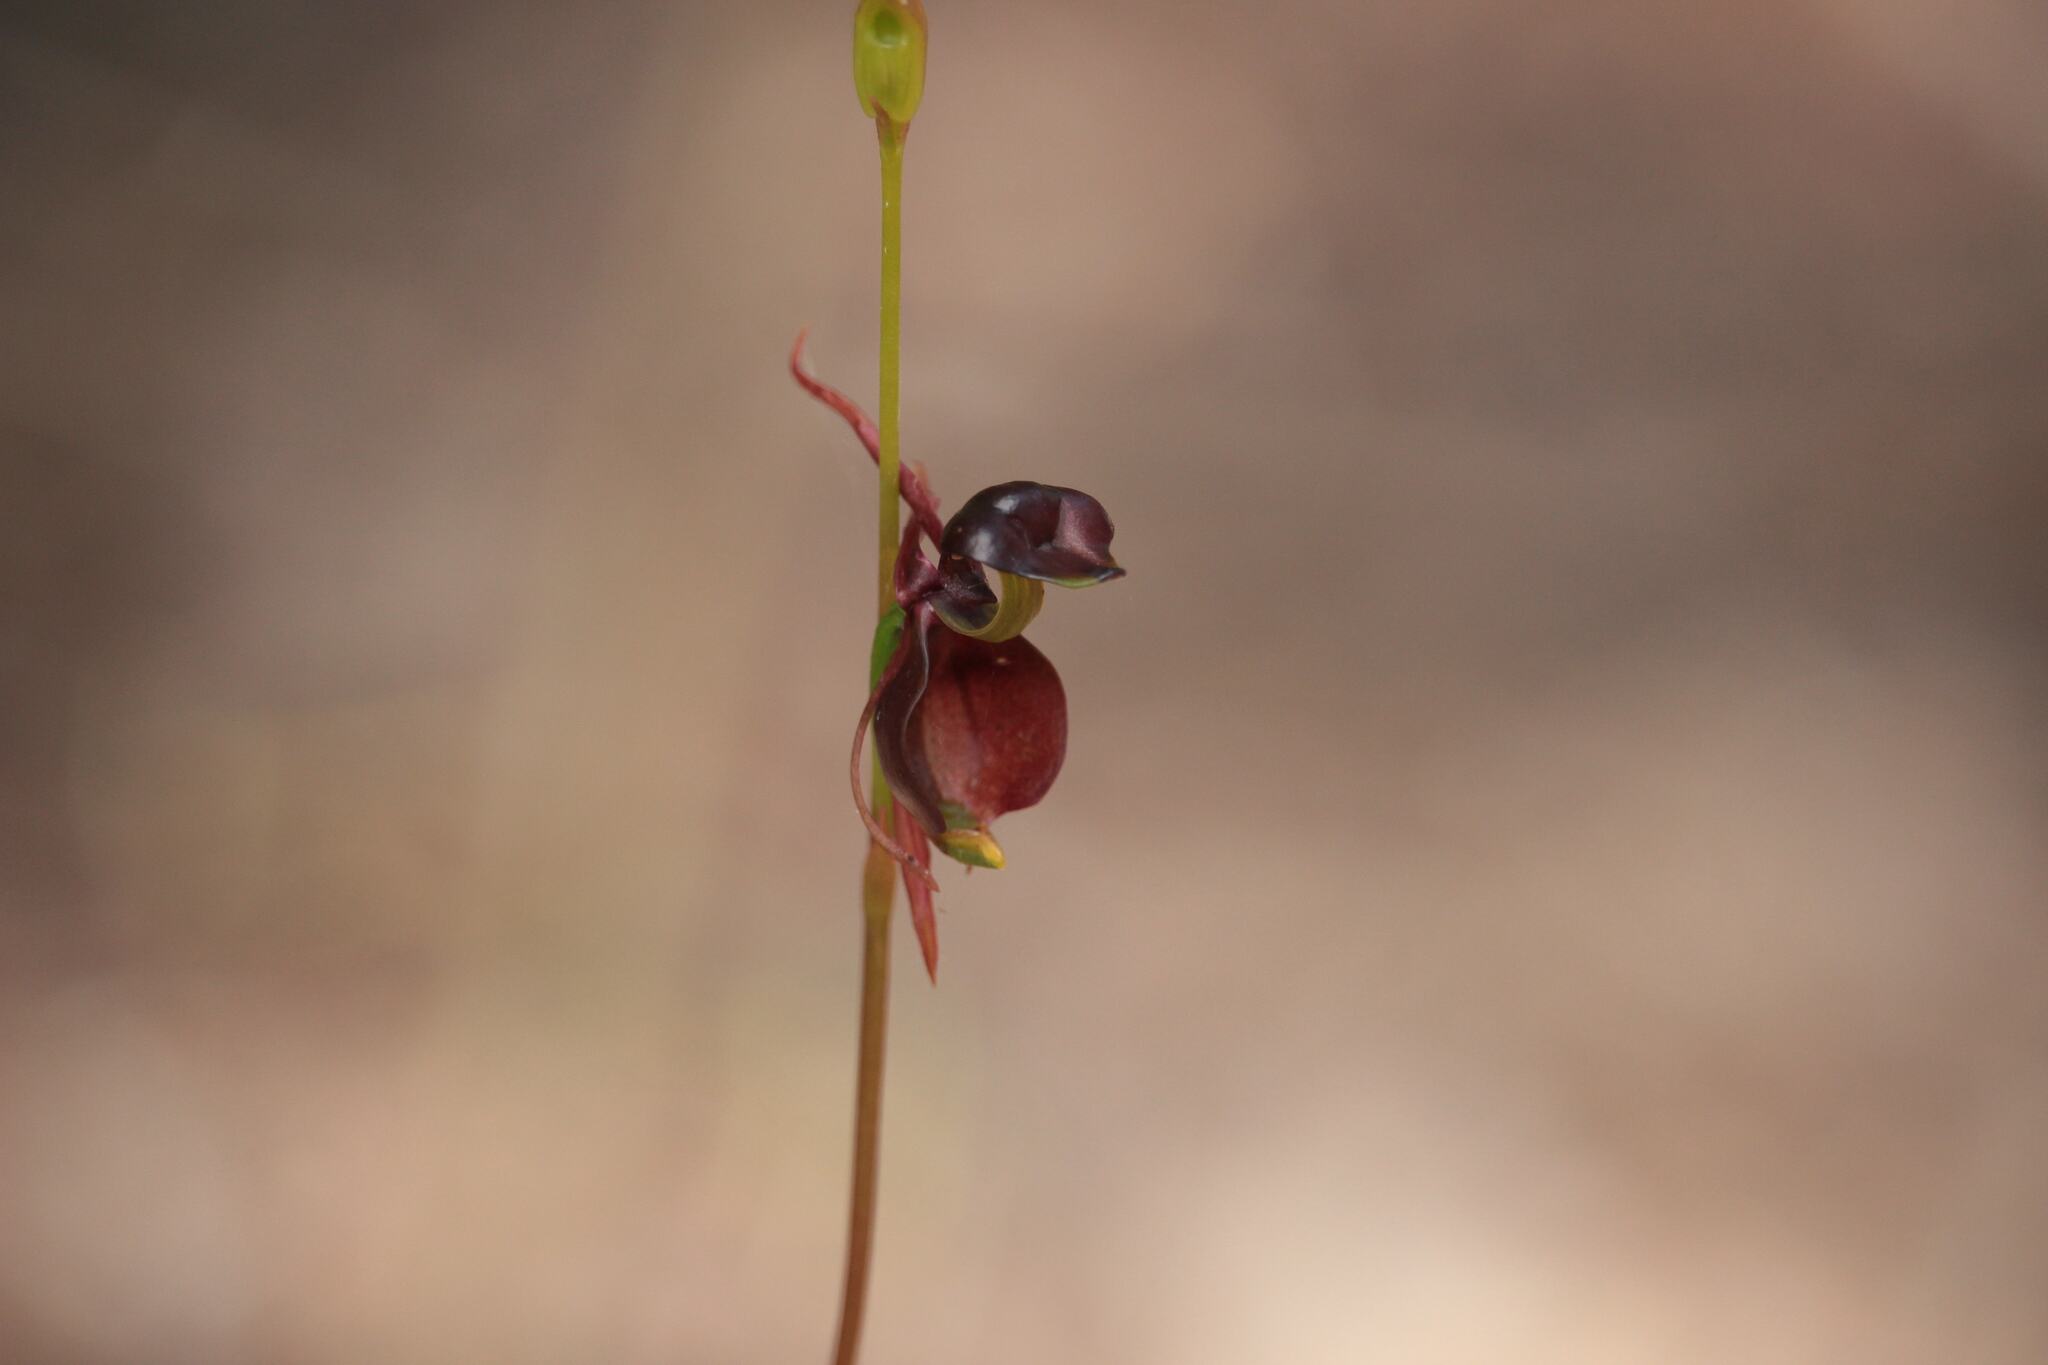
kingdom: Plantae
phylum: Tracheophyta
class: Liliopsida
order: Asparagales
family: Orchidaceae
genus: Caleana
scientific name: Caleana major
